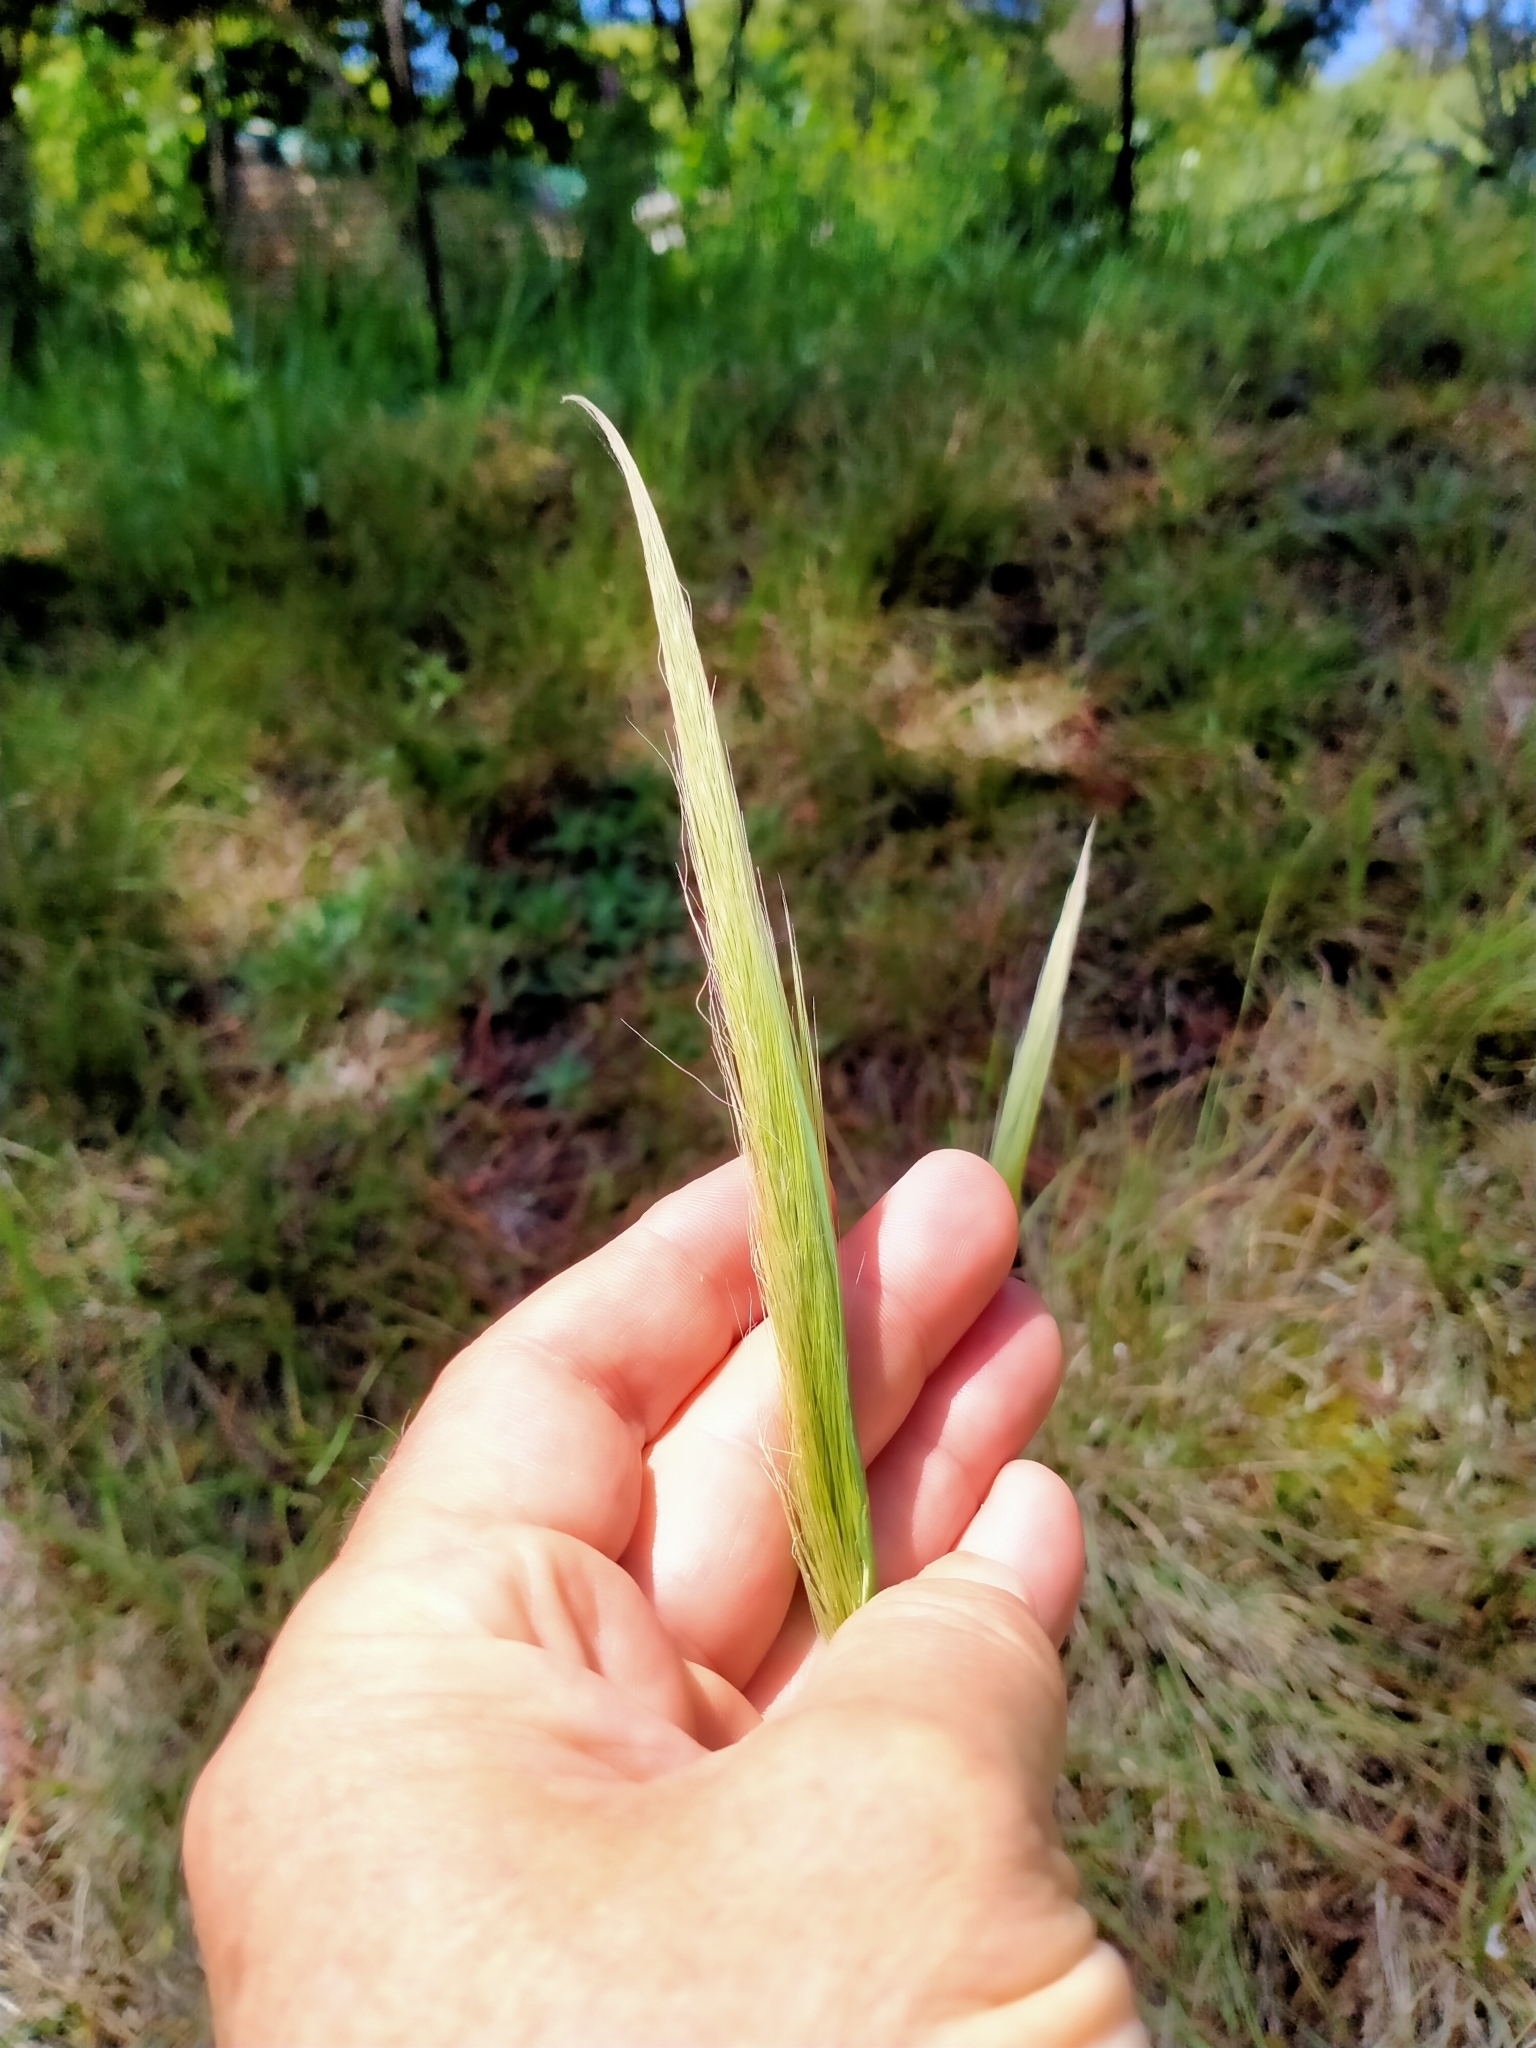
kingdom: Plantae
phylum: Tracheophyta
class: Liliopsida
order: Poales
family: Poaceae
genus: Dichelachne
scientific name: Dichelachne crinita
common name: Clovenfoot plumegrass
